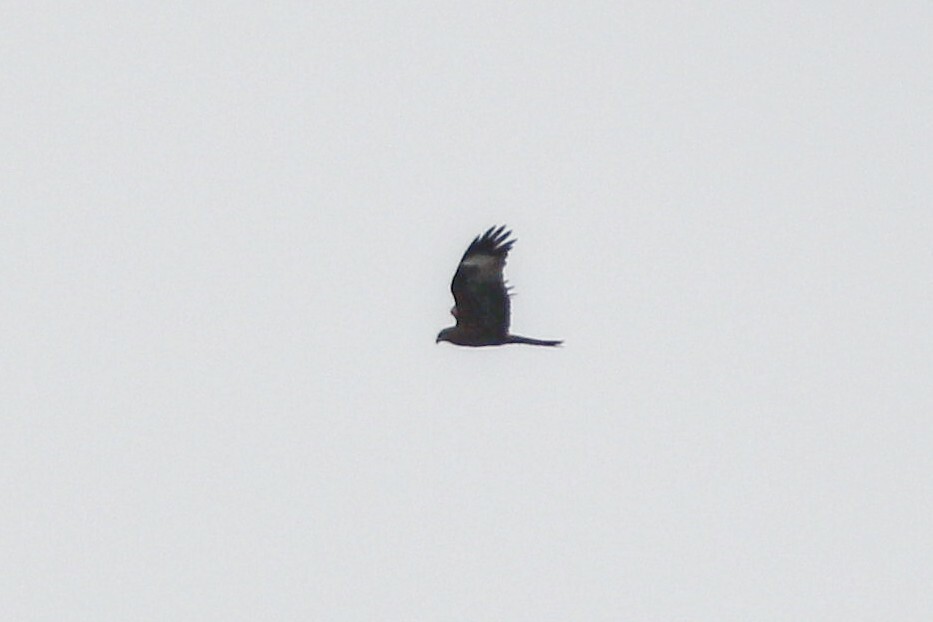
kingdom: Animalia
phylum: Chordata
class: Aves
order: Accipitriformes
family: Accipitridae
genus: Milvus
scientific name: Milvus migrans
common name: Black kite
